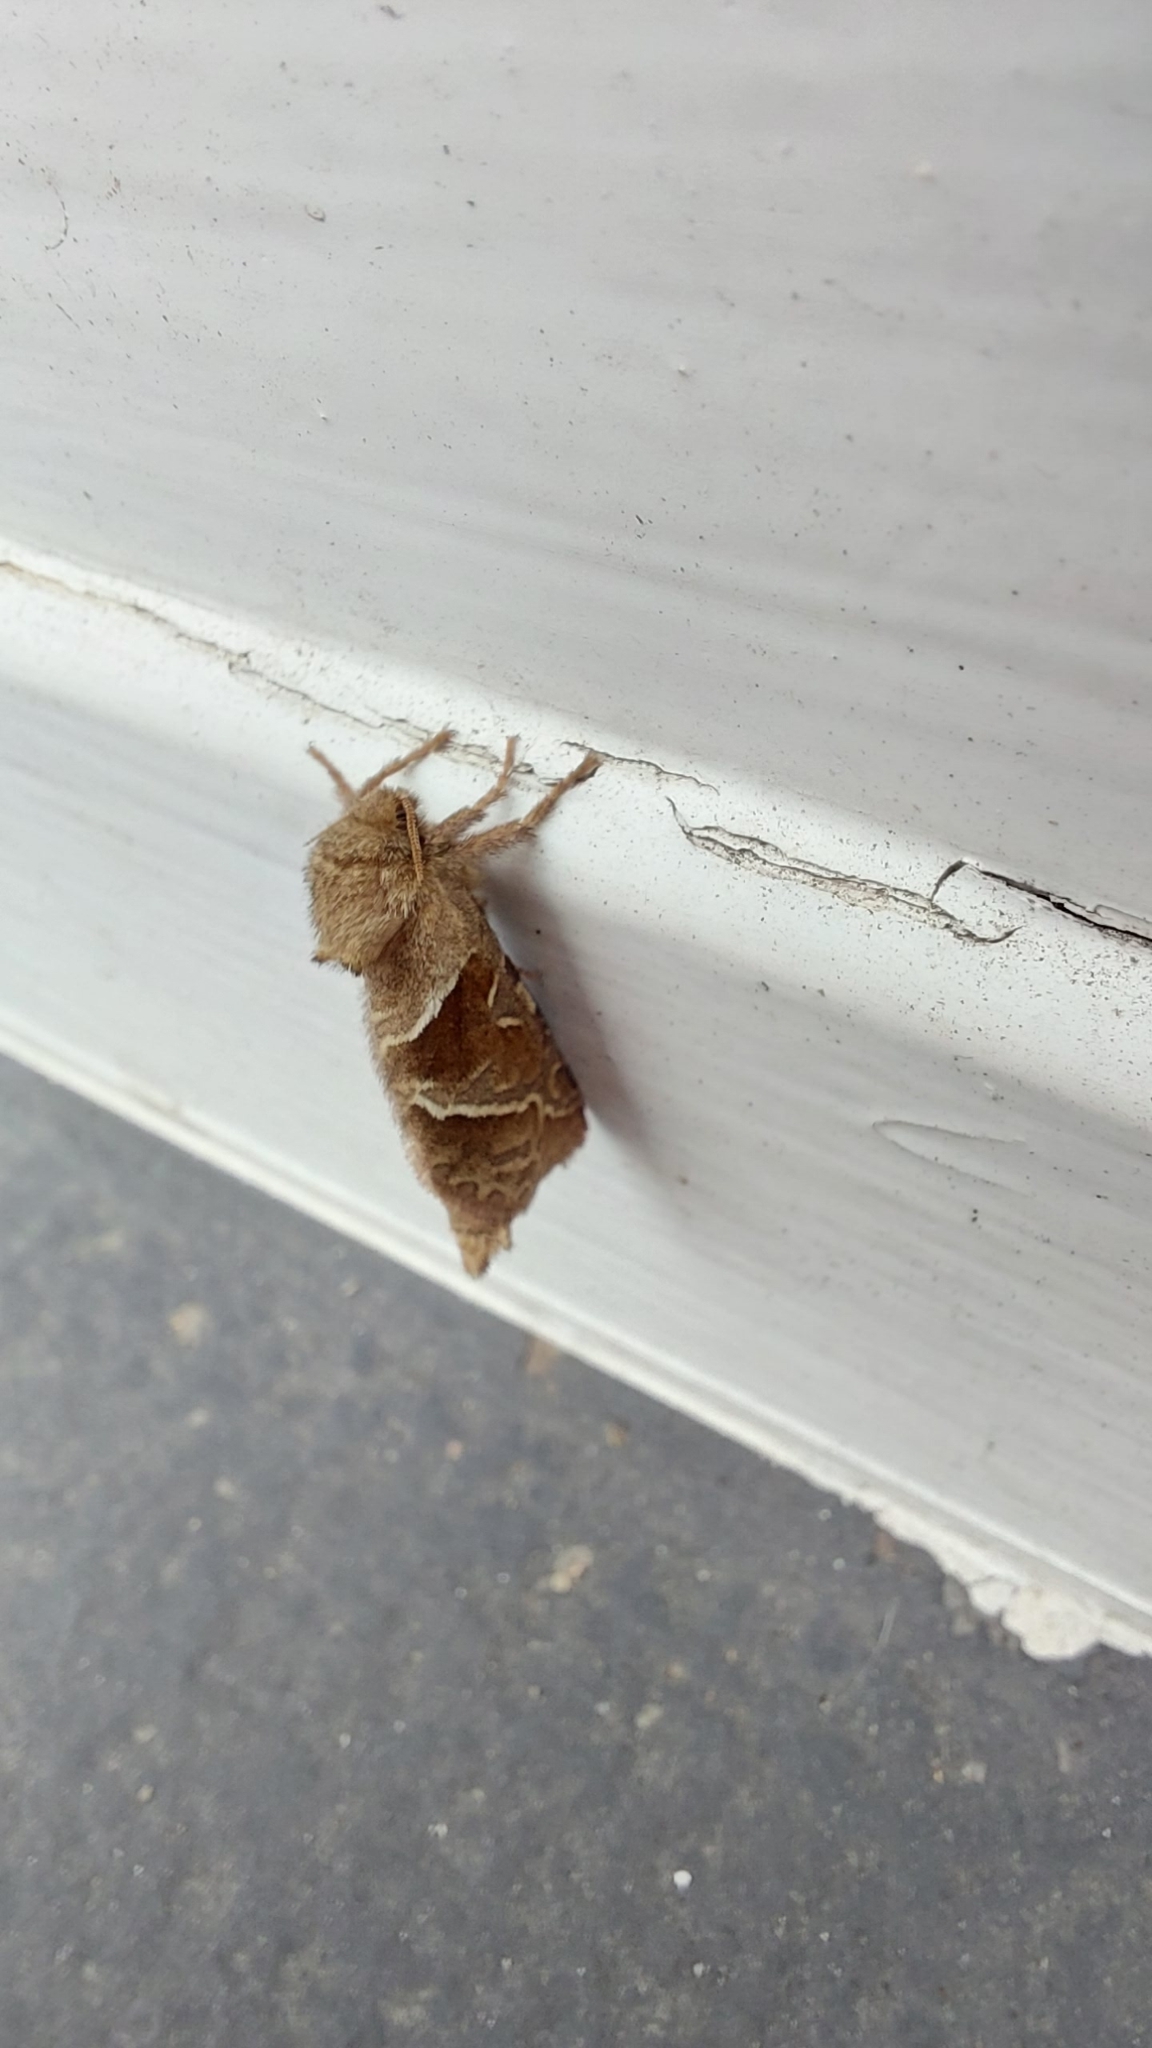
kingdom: Animalia
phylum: Arthropoda
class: Insecta
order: Lepidoptera
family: Hepialidae
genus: Triodia
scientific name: Triodia sylvina
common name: Orange swift
